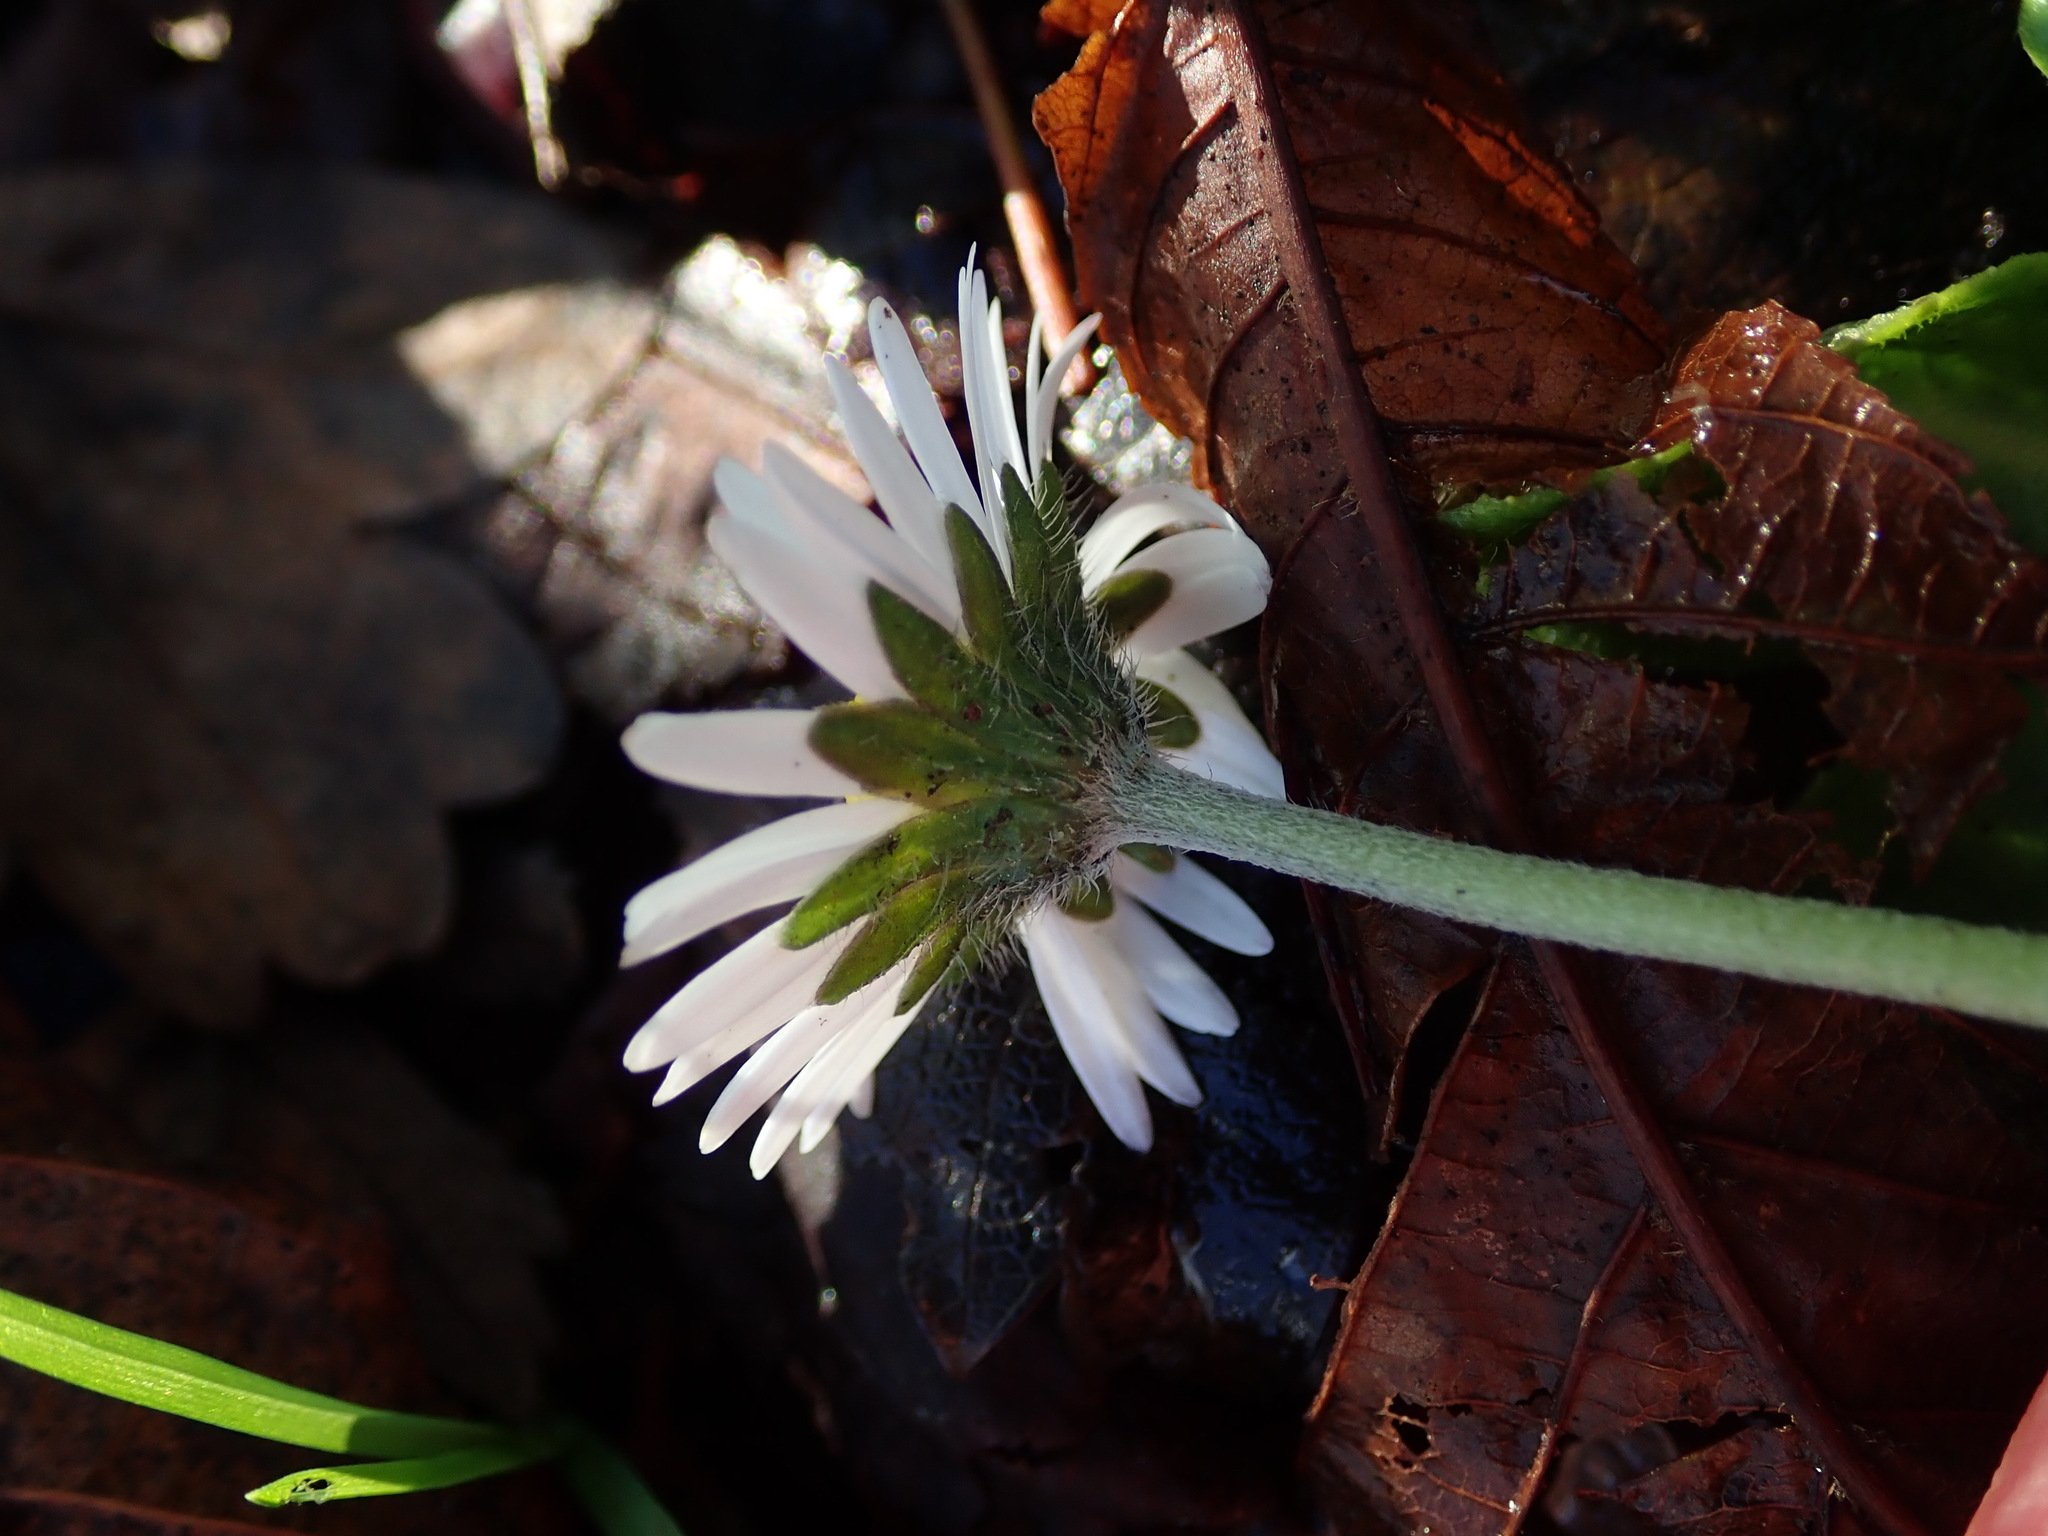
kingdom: Plantae
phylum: Tracheophyta
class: Magnoliopsida
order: Asterales
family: Asteraceae
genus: Bellis
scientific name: Bellis perennis
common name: Lawndaisy
